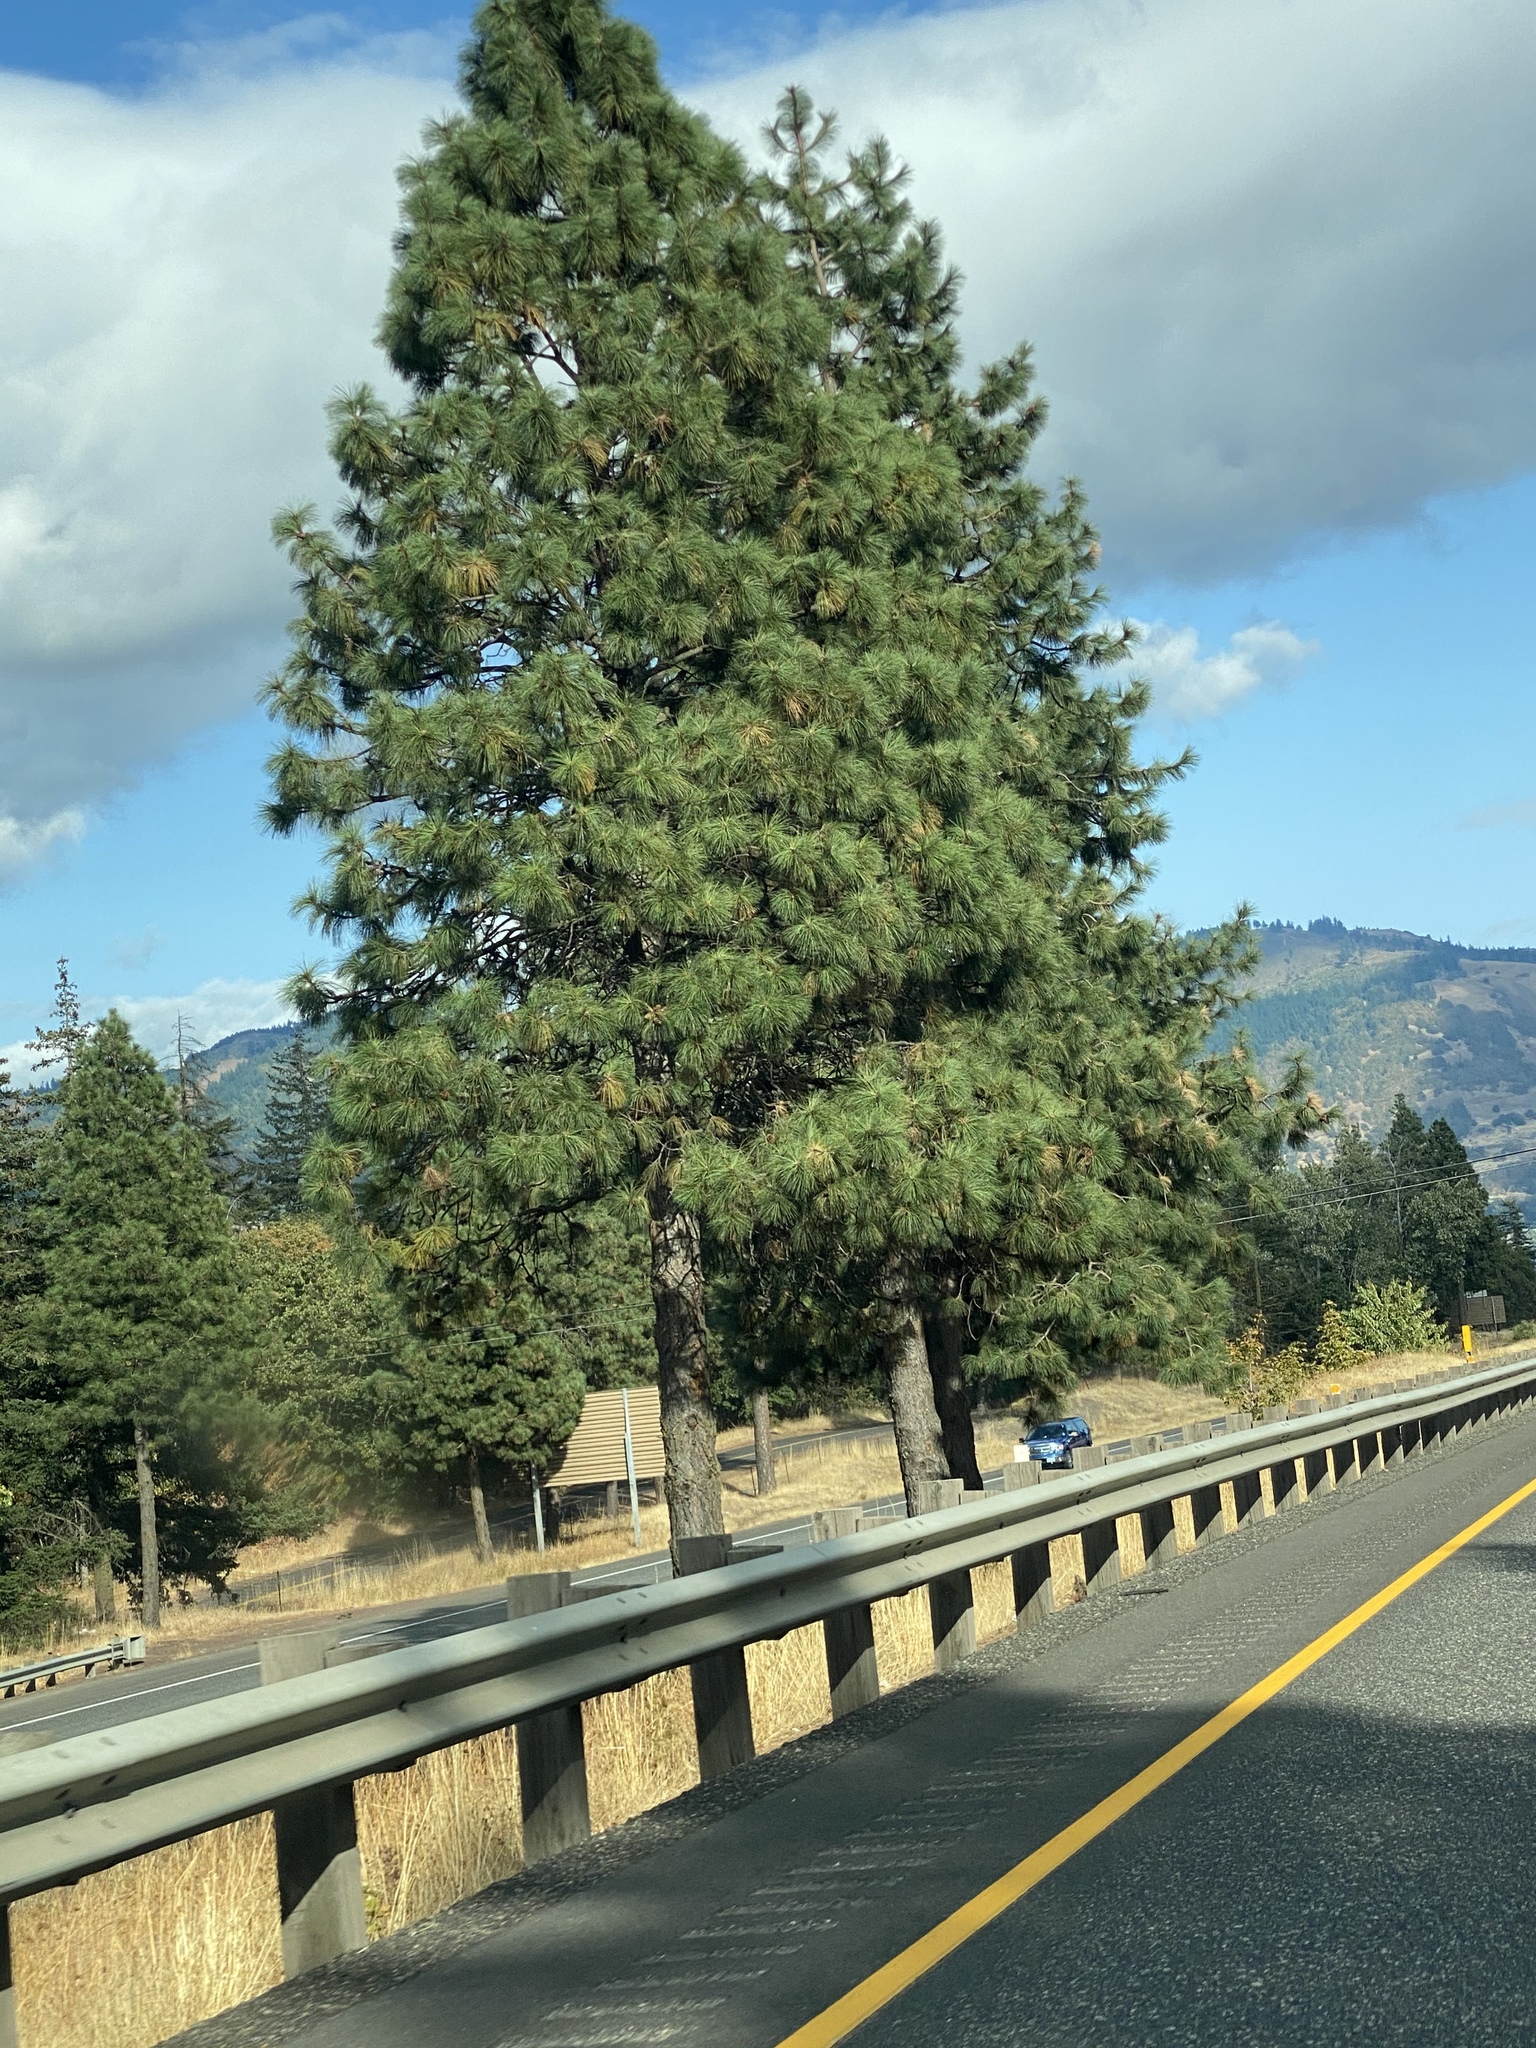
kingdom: Plantae
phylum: Tracheophyta
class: Pinopsida
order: Pinales
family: Pinaceae
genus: Pinus
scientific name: Pinus ponderosa
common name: Western yellow-pine
